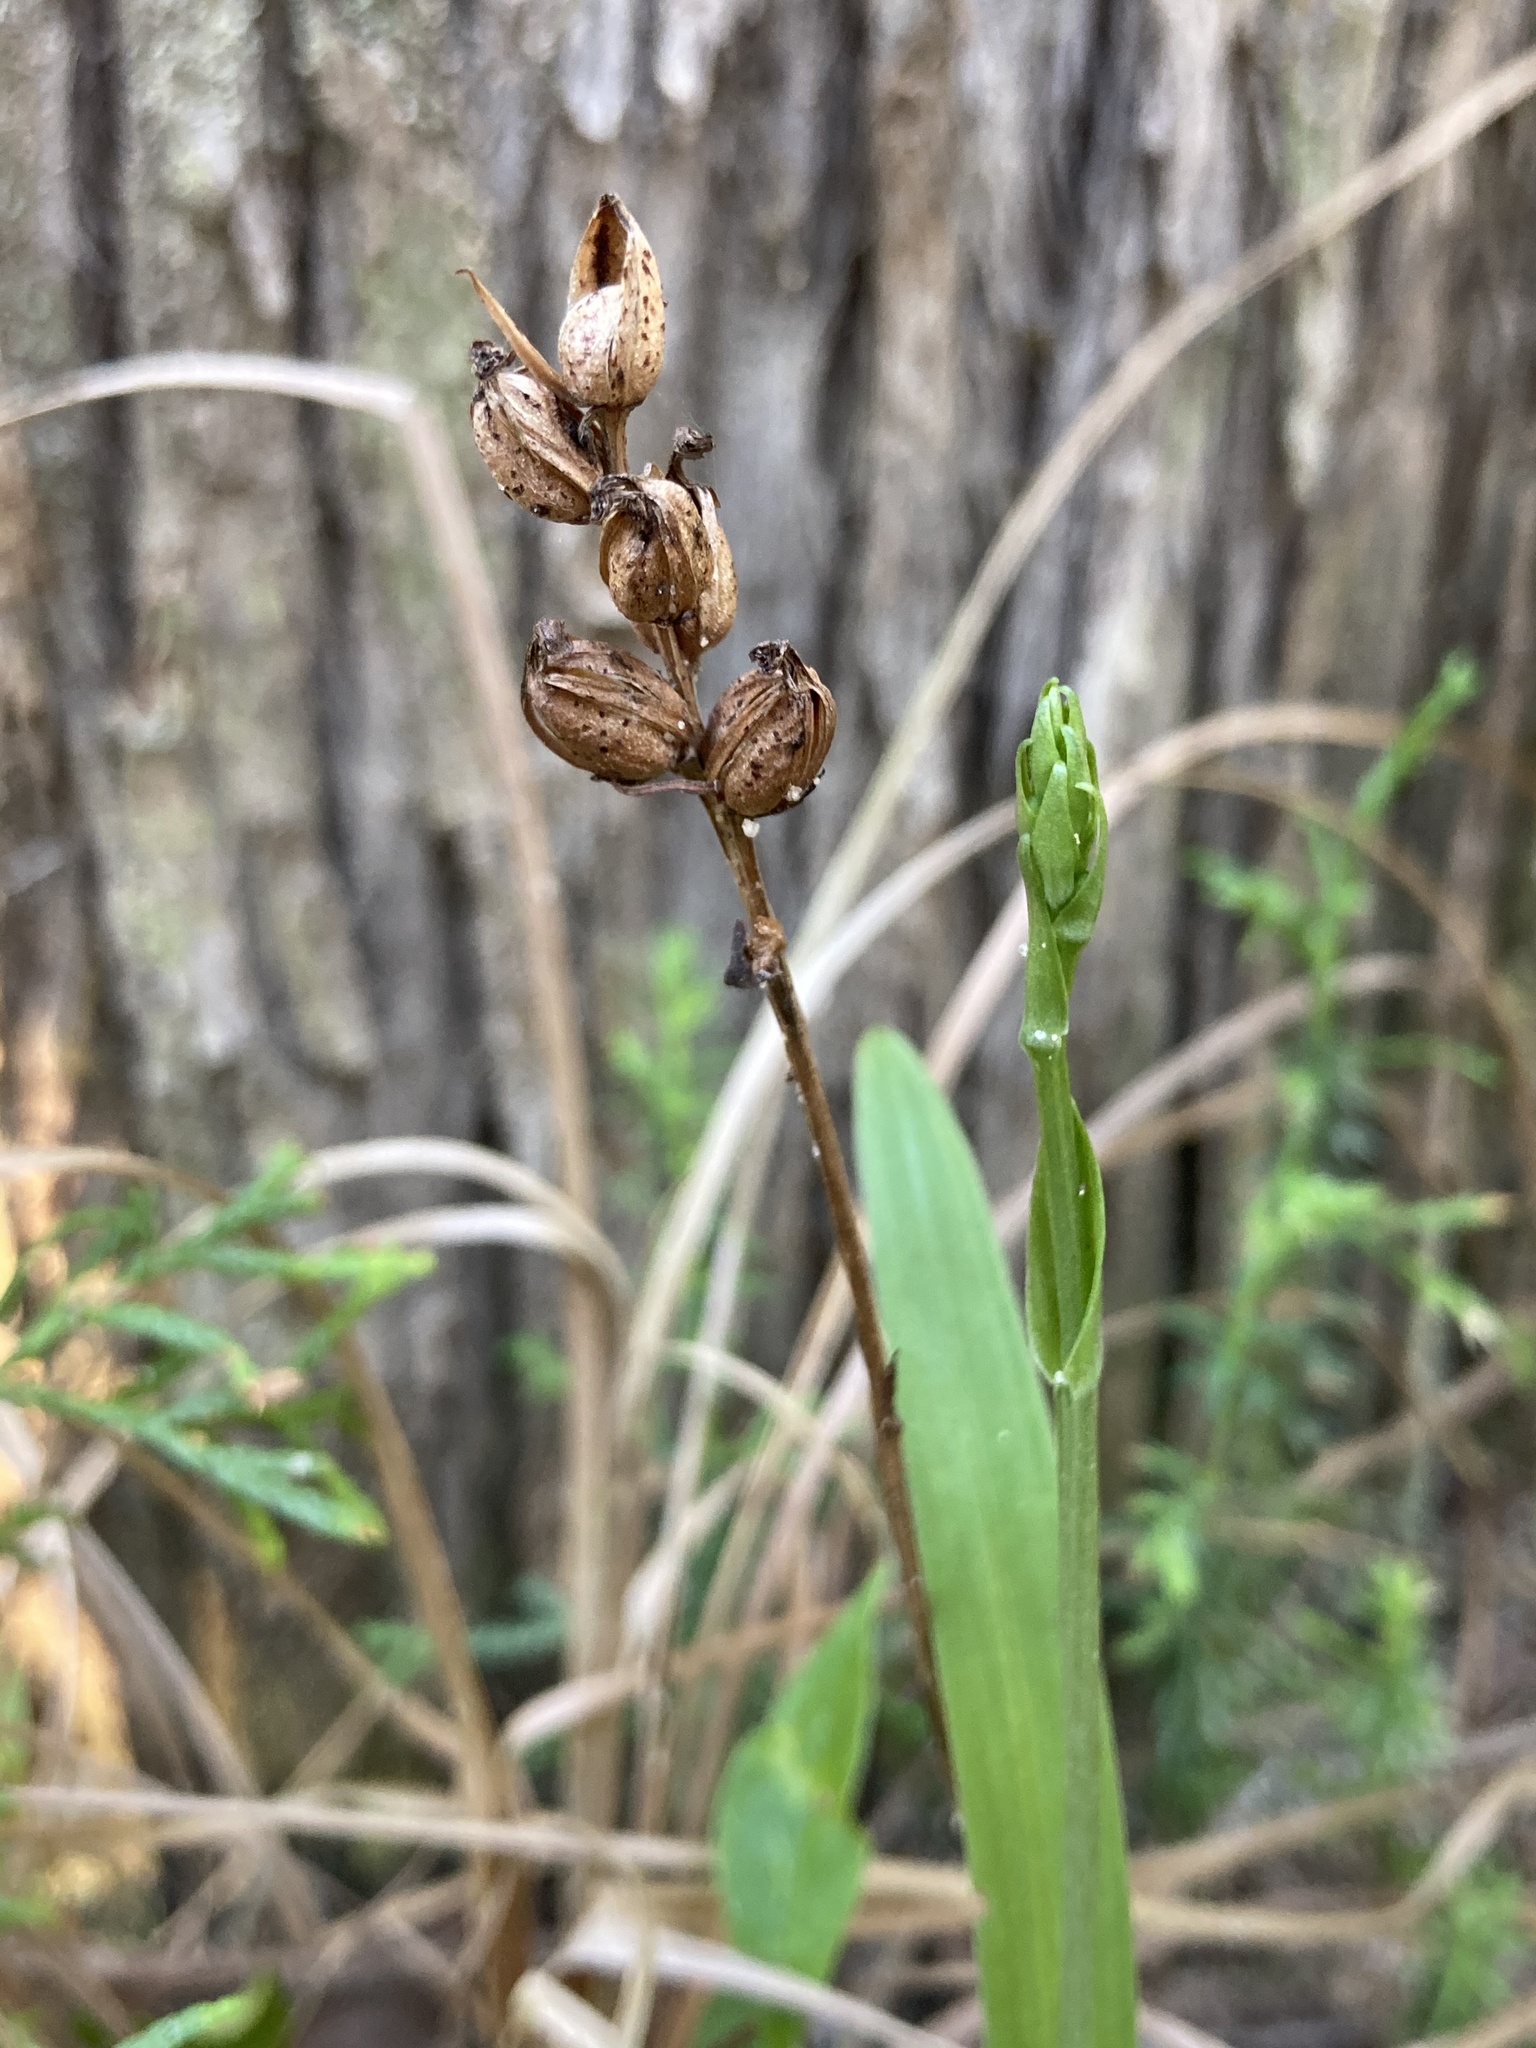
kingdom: Plantae
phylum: Tracheophyta
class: Liliopsida
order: Asparagales
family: Orchidaceae
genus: Platanthera
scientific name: Platanthera clavellata
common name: Club-spur orchid
